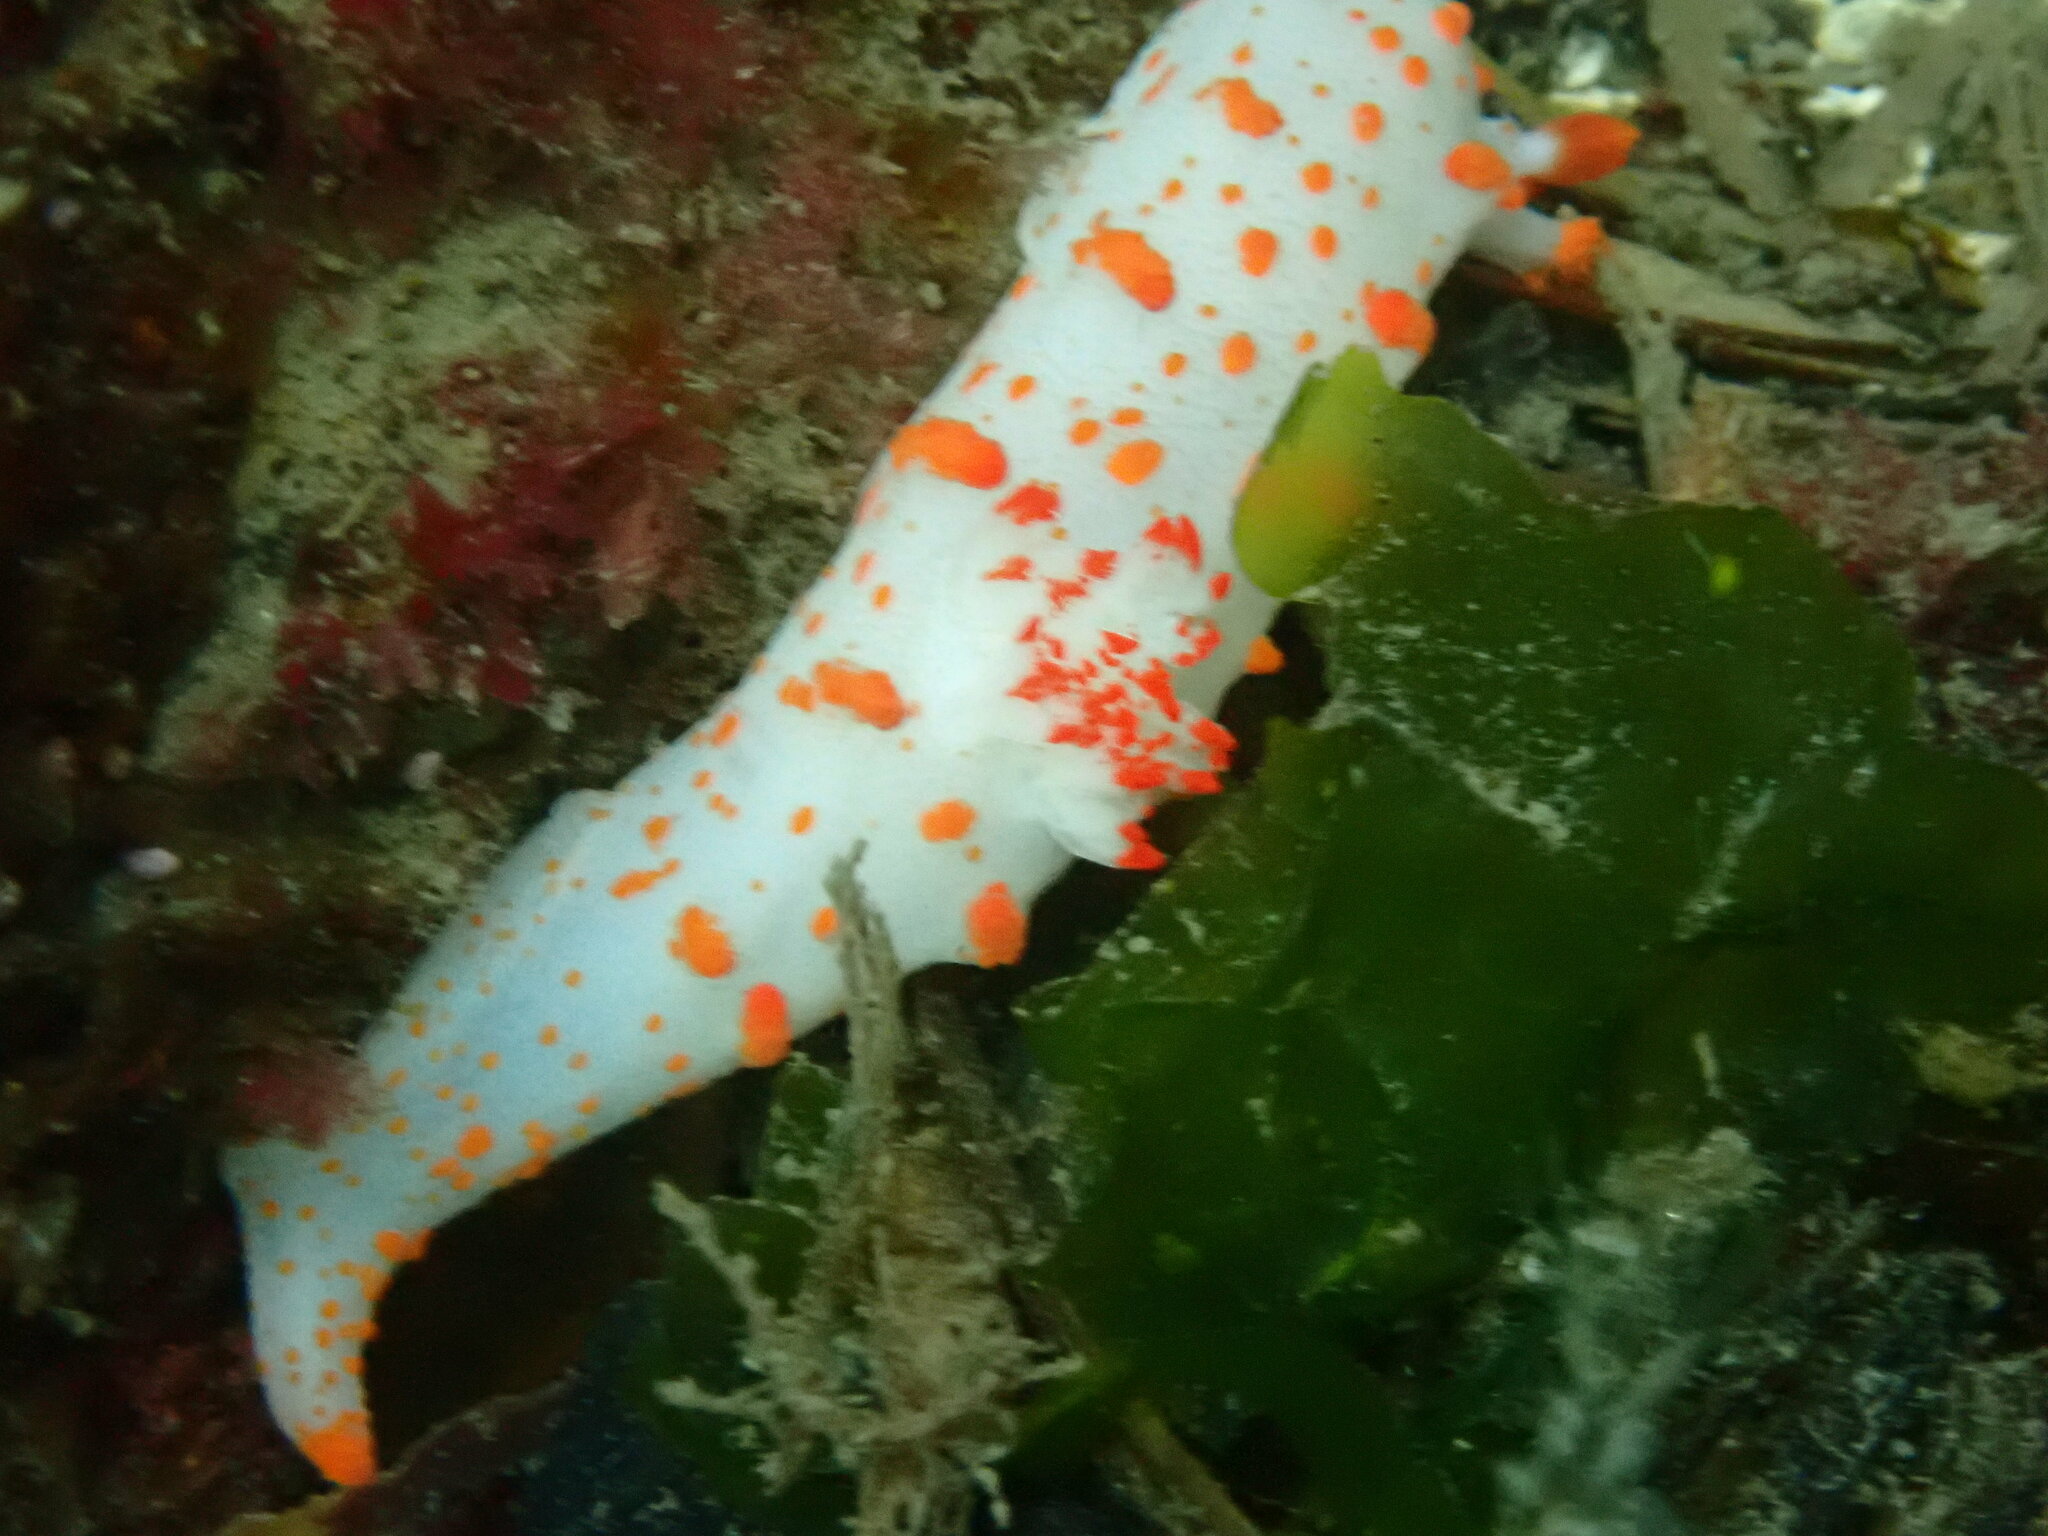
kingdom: Animalia
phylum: Mollusca
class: Gastropoda
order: Nudibranchia
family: Polyceridae
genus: Triopha
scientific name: Triopha catalinae
